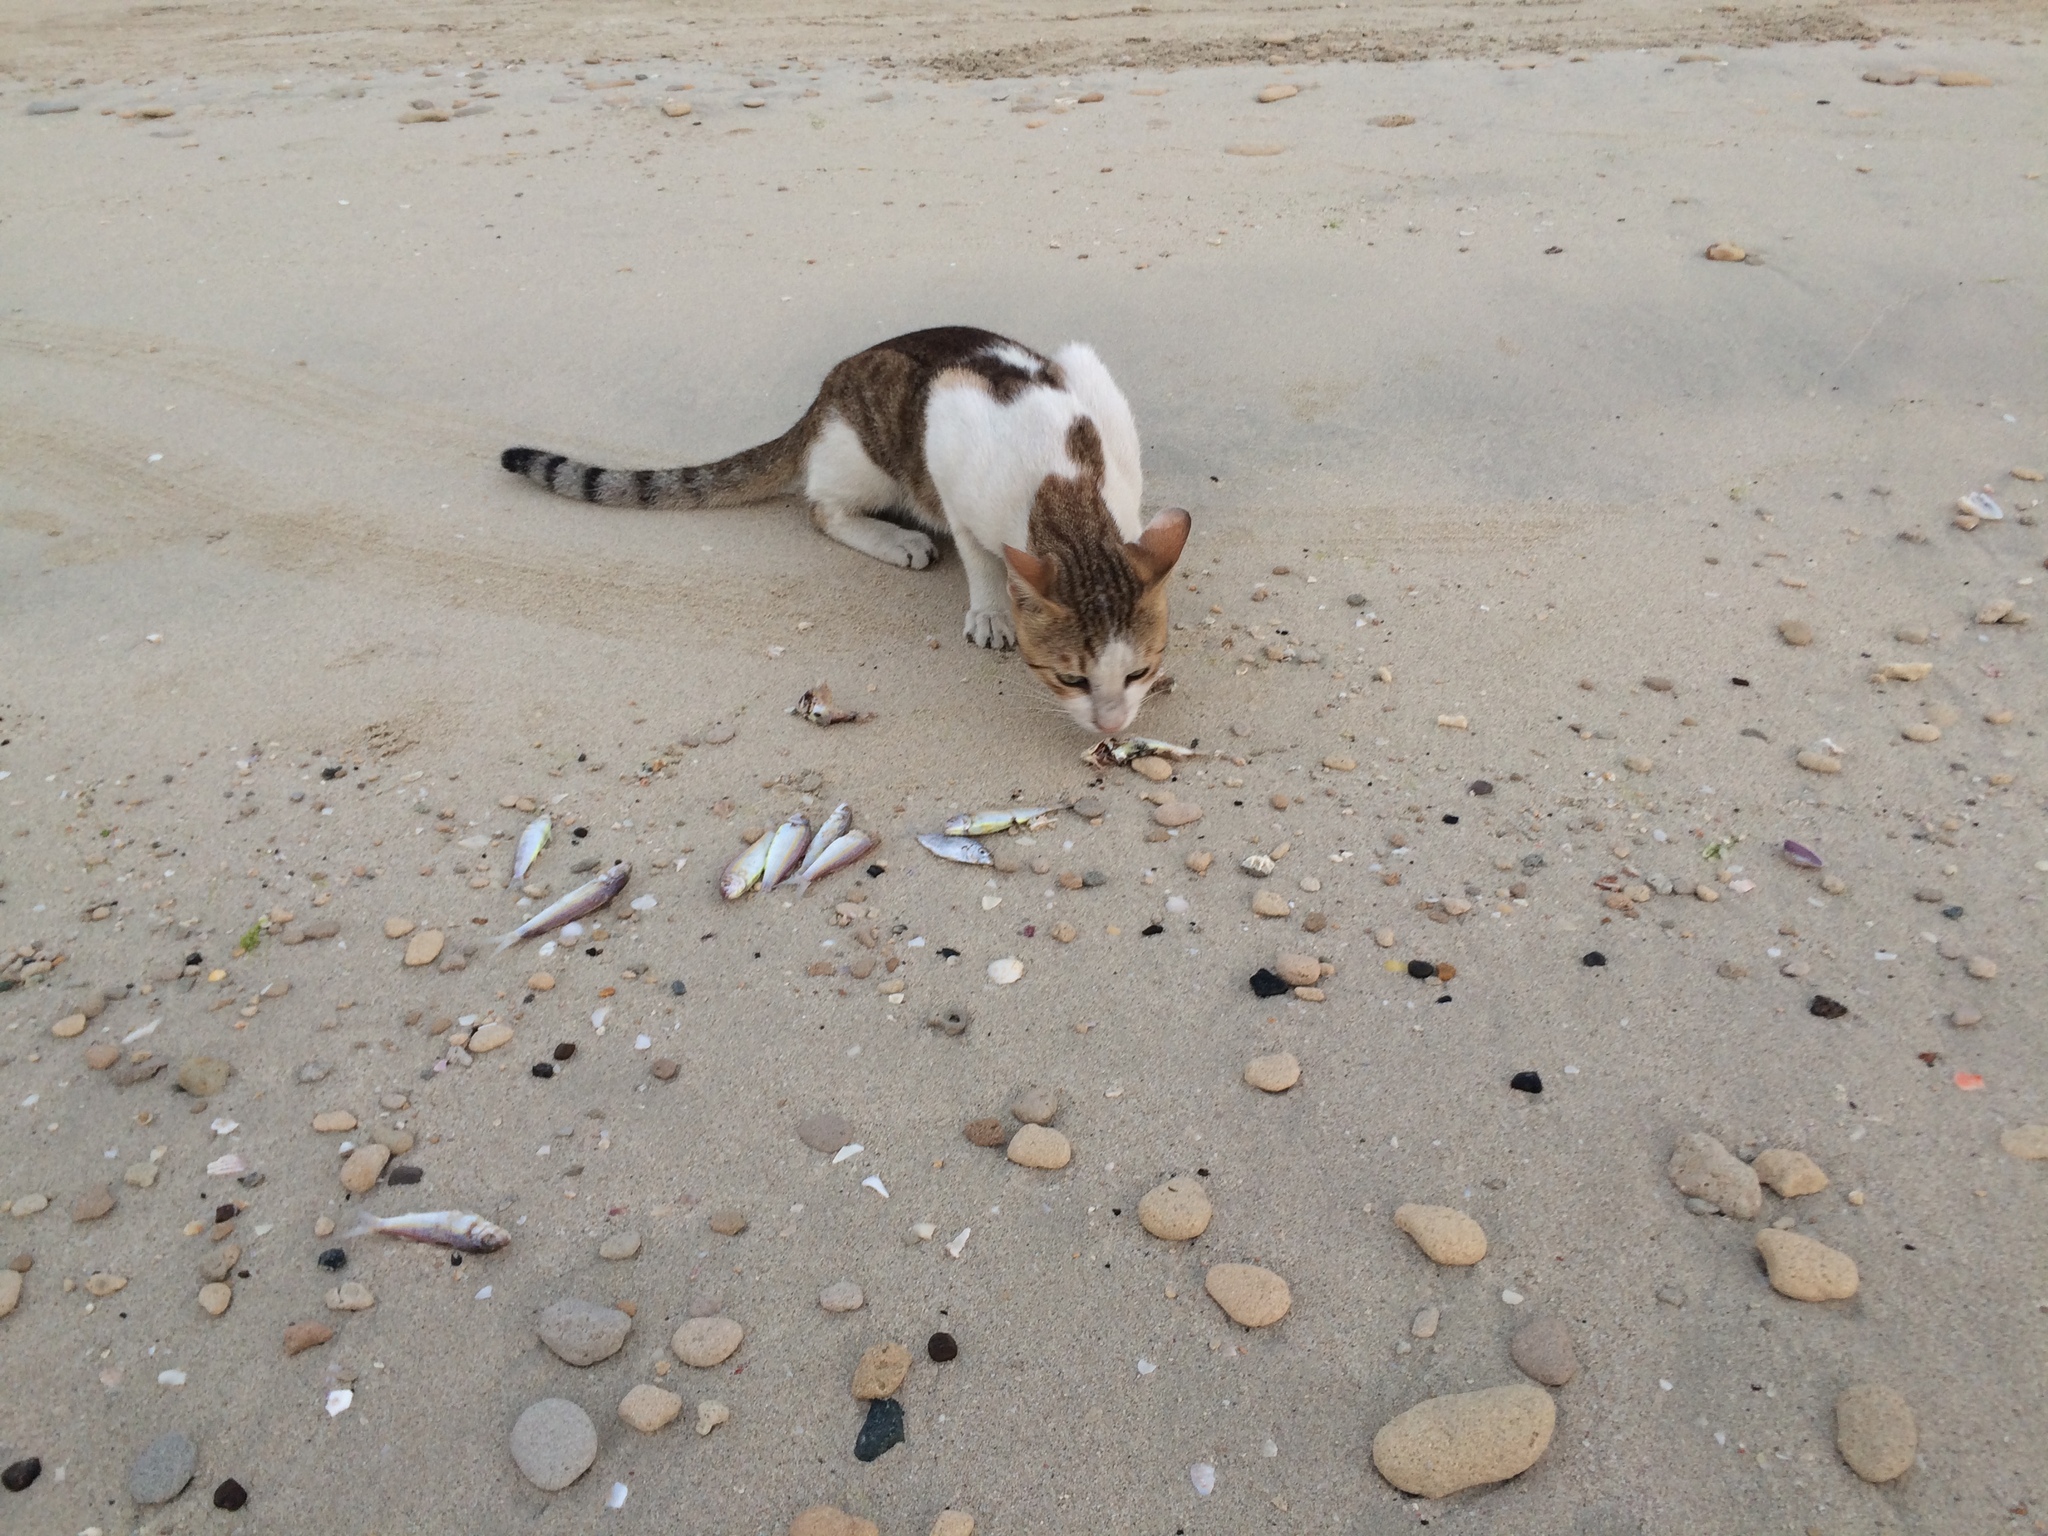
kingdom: Animalia
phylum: Chordata
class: Mammalia
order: Carnivora
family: Felidae
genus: Felis
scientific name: Felis catus
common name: Domestic cat
